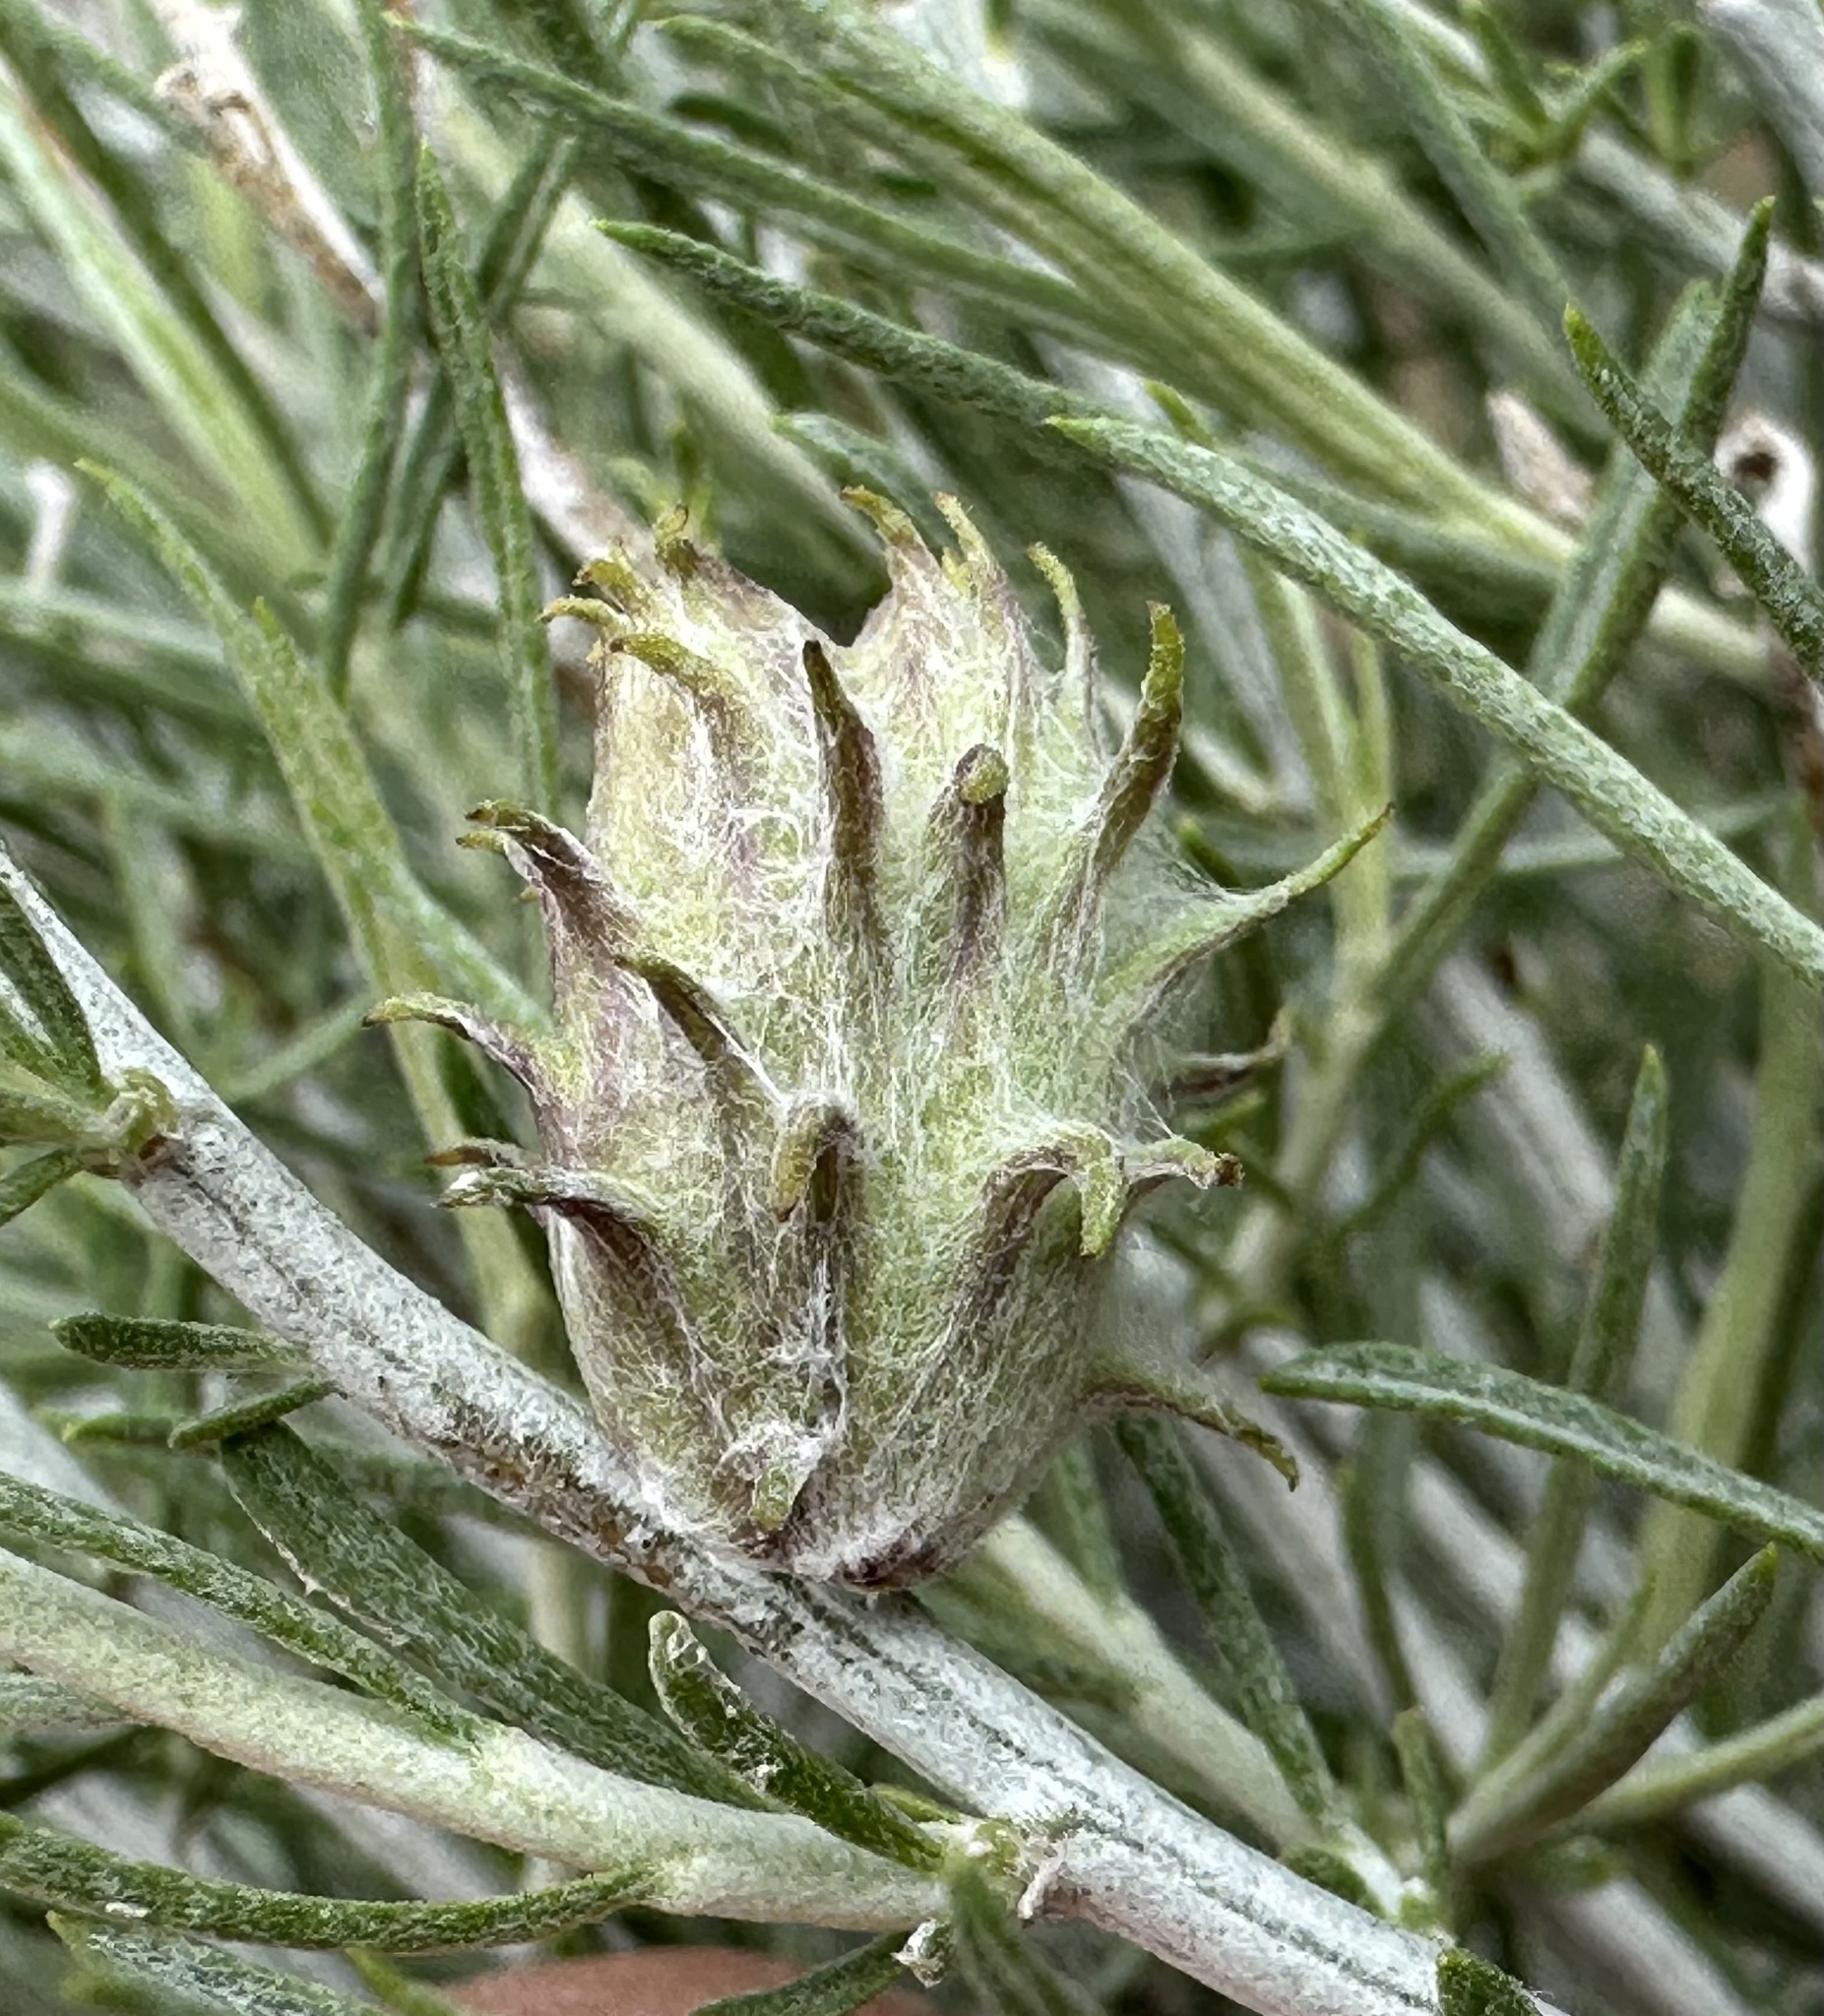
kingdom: Animalia
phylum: Arthropoda
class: Insecta
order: Diptera
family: Cecidomyiidae
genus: Rhopalomyia
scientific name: Rhopalomyia utahensis
